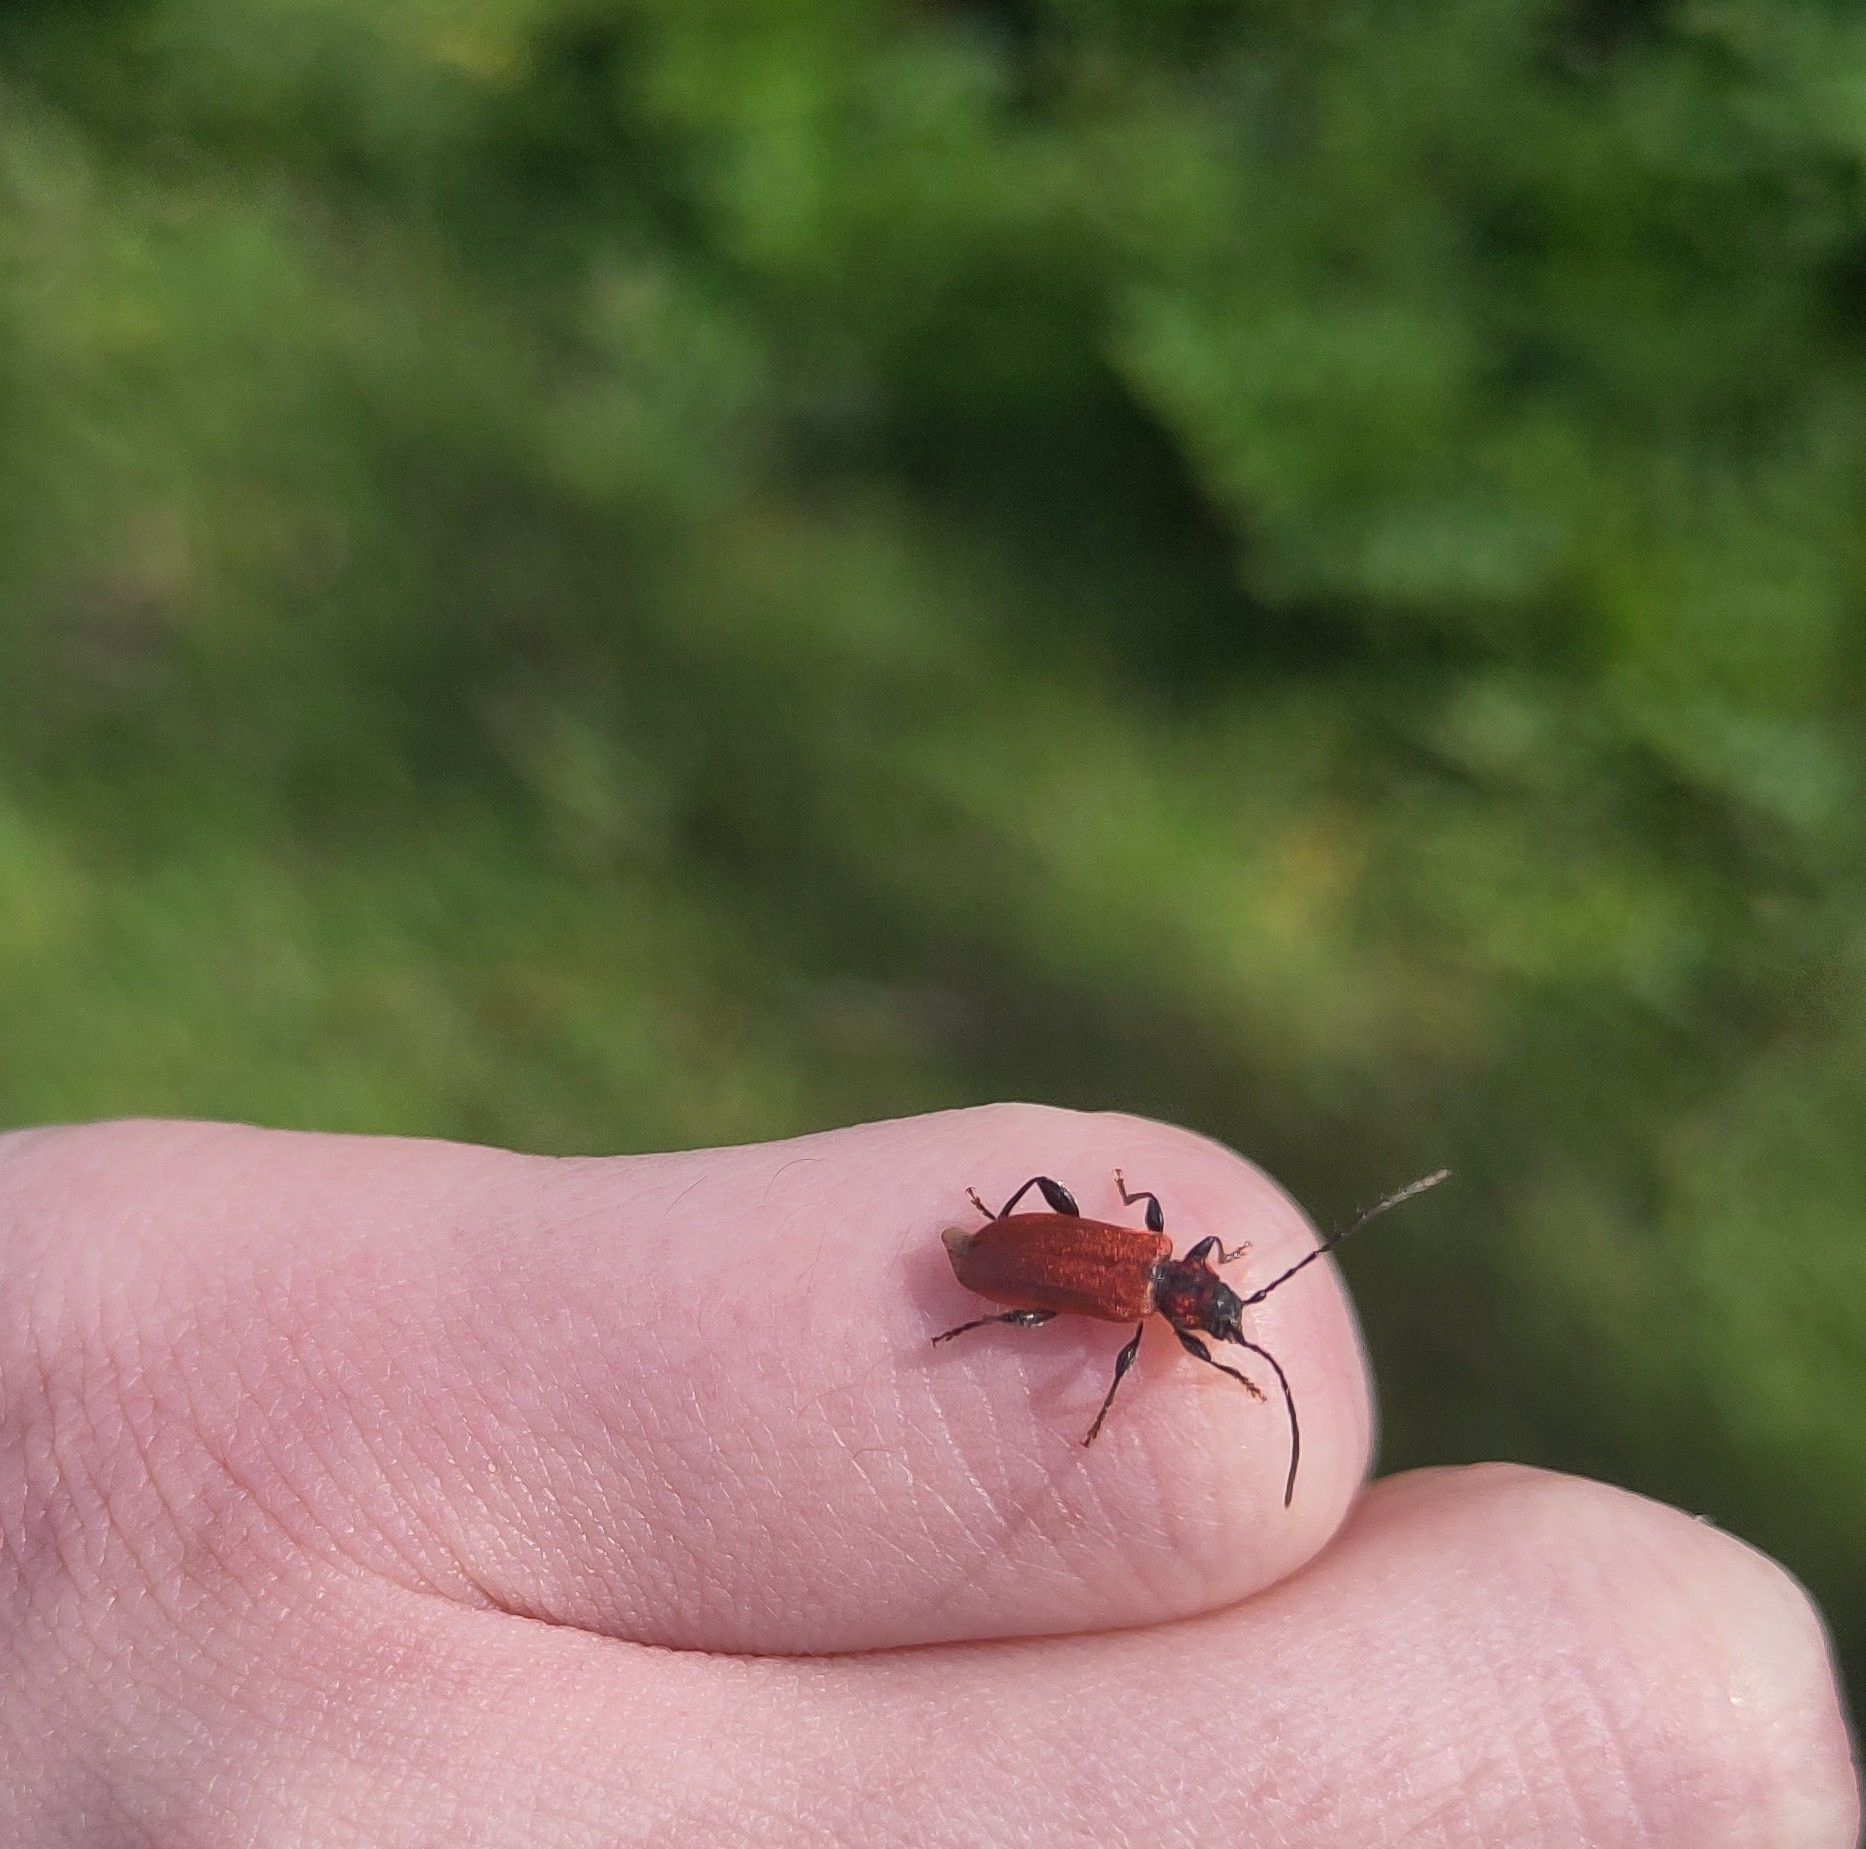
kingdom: Animalia
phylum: Arthropoda
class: Insecta
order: Coleoptera
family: Cerambycidae
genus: Pyrrhidium
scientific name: Pyrrhidium sanguineum
